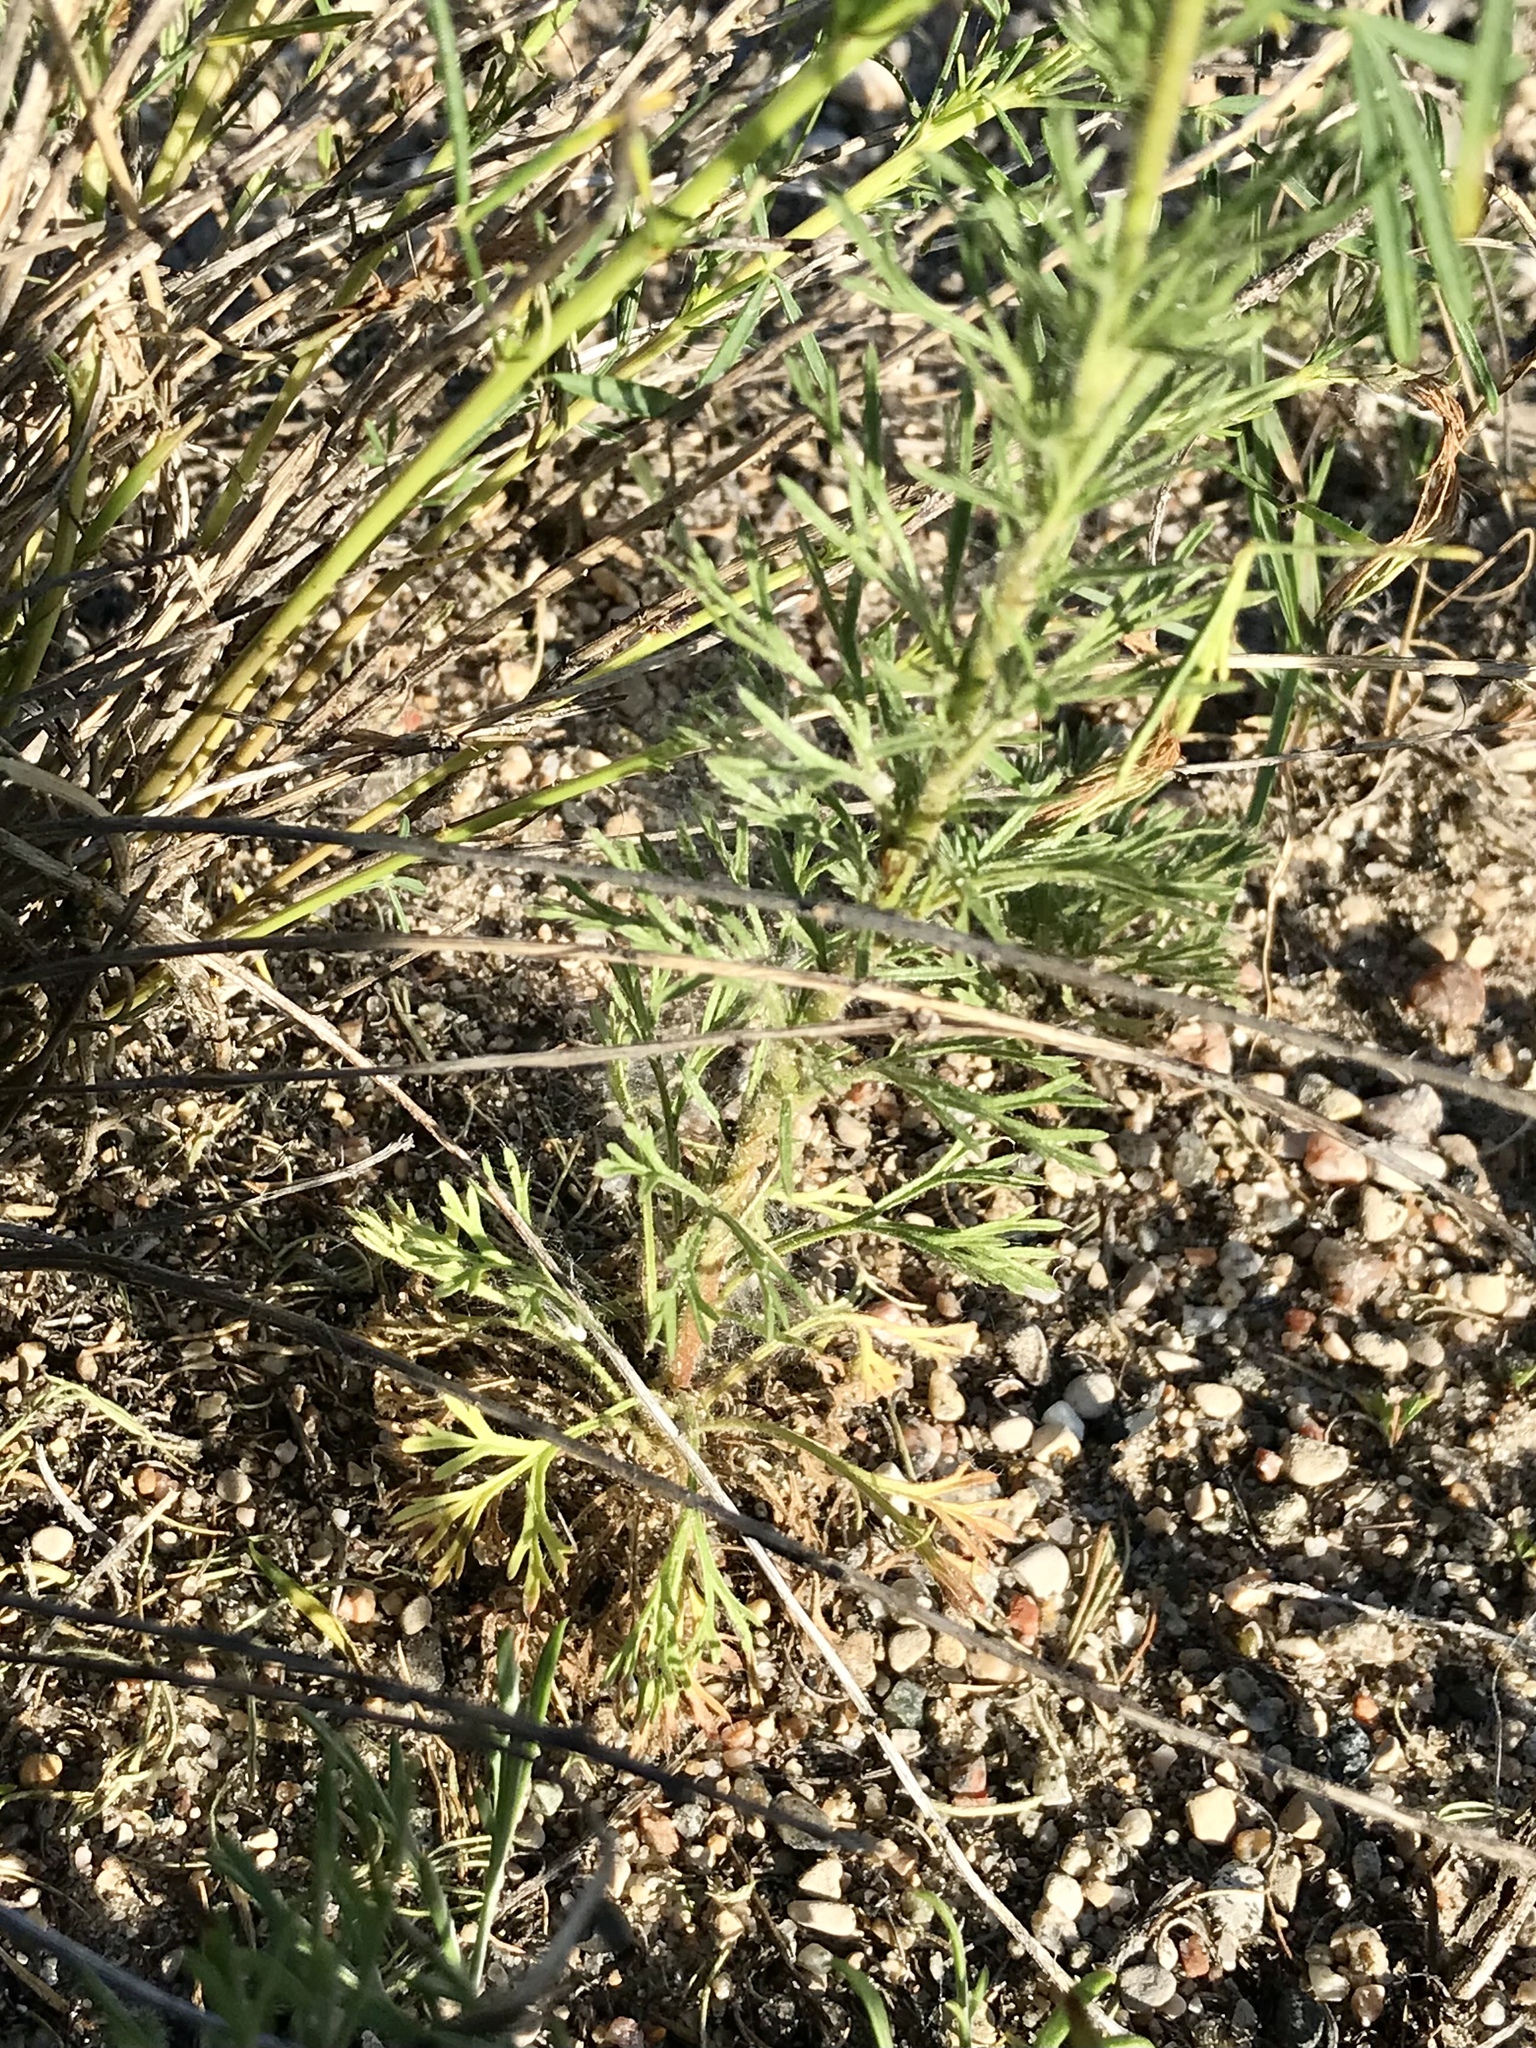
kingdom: Plantae
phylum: Tracheophyta
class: Magnoliopsida
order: Rosales
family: Rosaceae
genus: Chamaerhodos
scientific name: Chamaerhodos erecta
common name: American chamaerhodos
